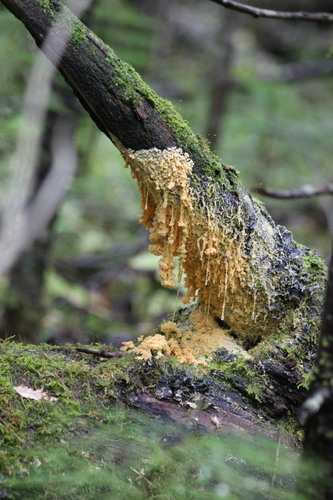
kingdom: Protozoa
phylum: Mycetozoa
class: Myxomycetes
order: Physarales
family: Physaraceae
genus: Fuligo
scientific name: Fuligo septica
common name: Dog vomit slime mold
